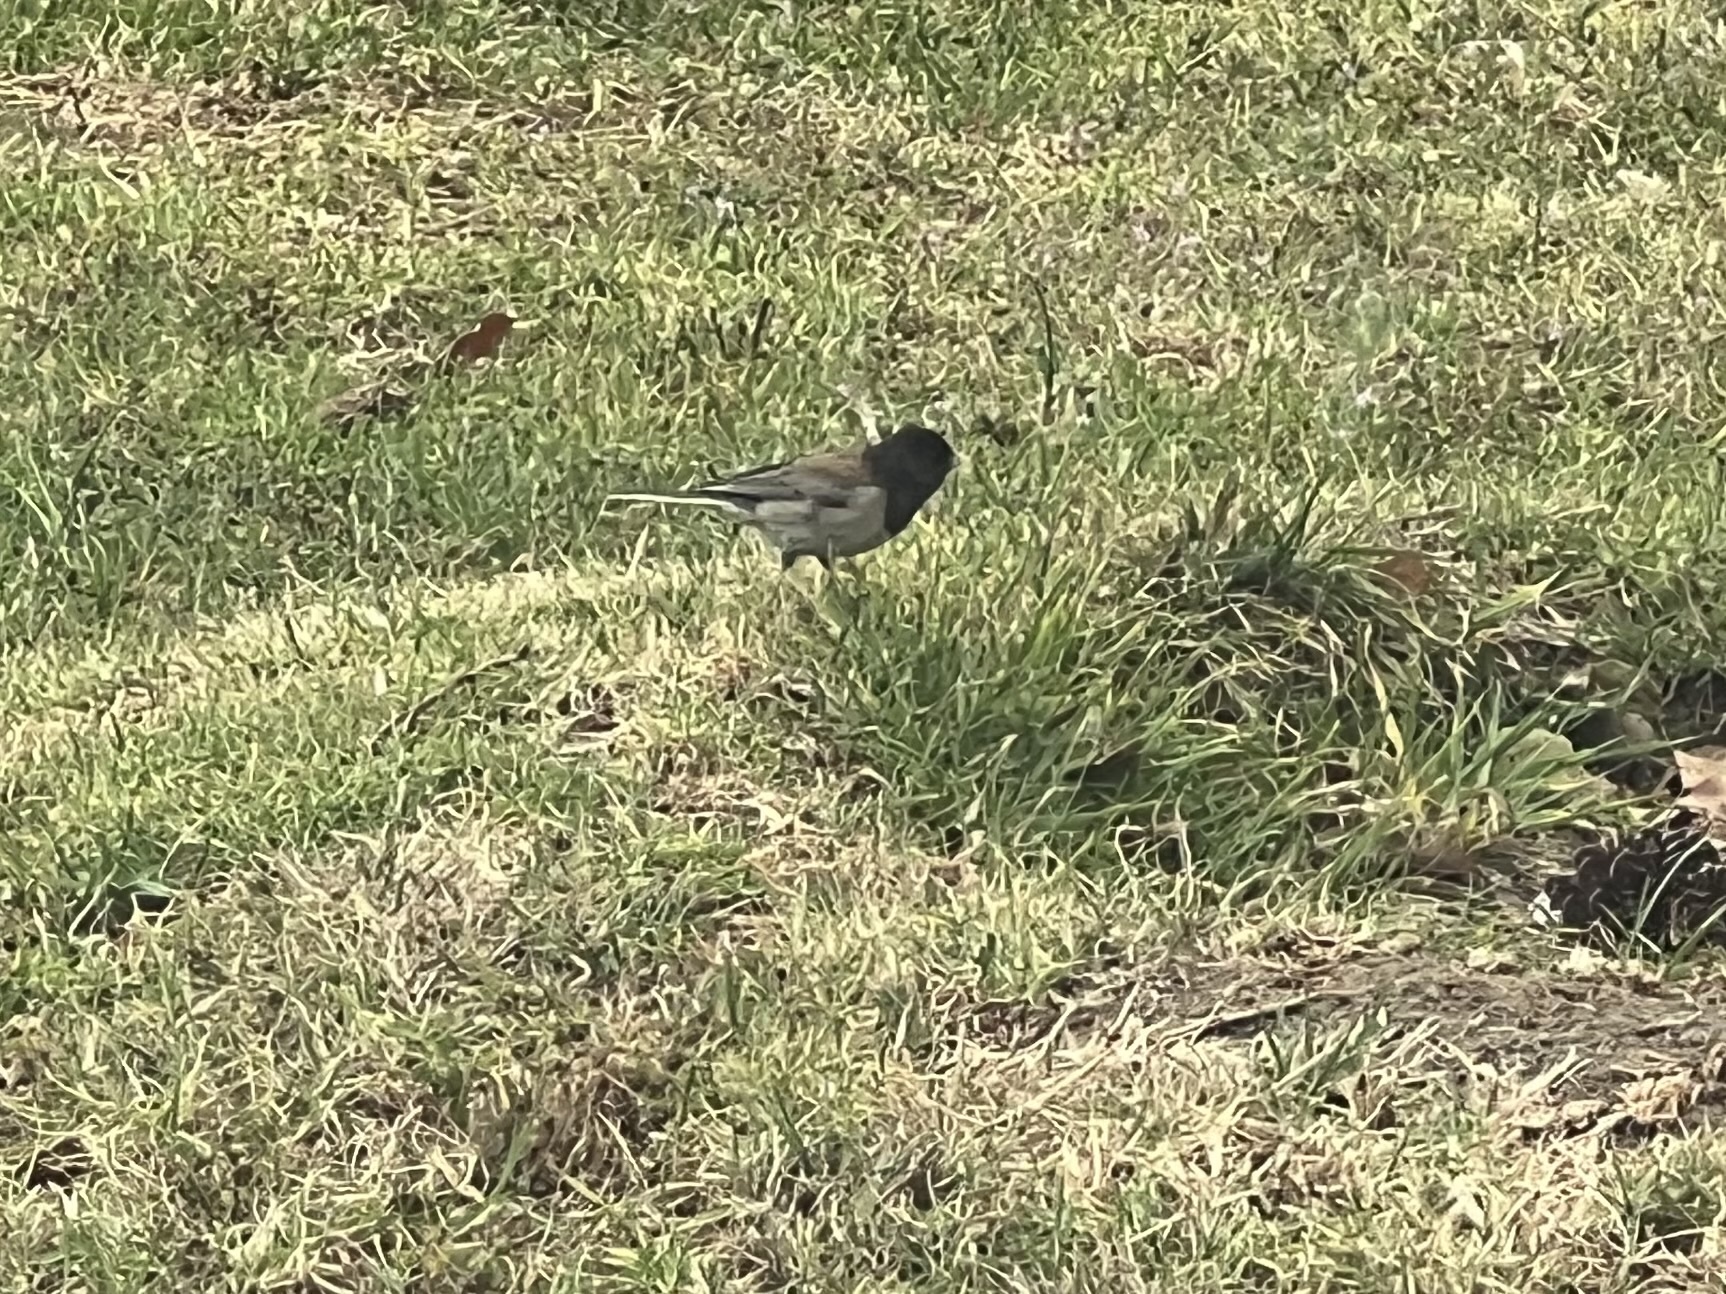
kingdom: Animalia
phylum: Chordata
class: Aves
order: Passeriformes
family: Passerellidae
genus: Junco
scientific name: Junco hyemalis
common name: Dark-eyed junco
